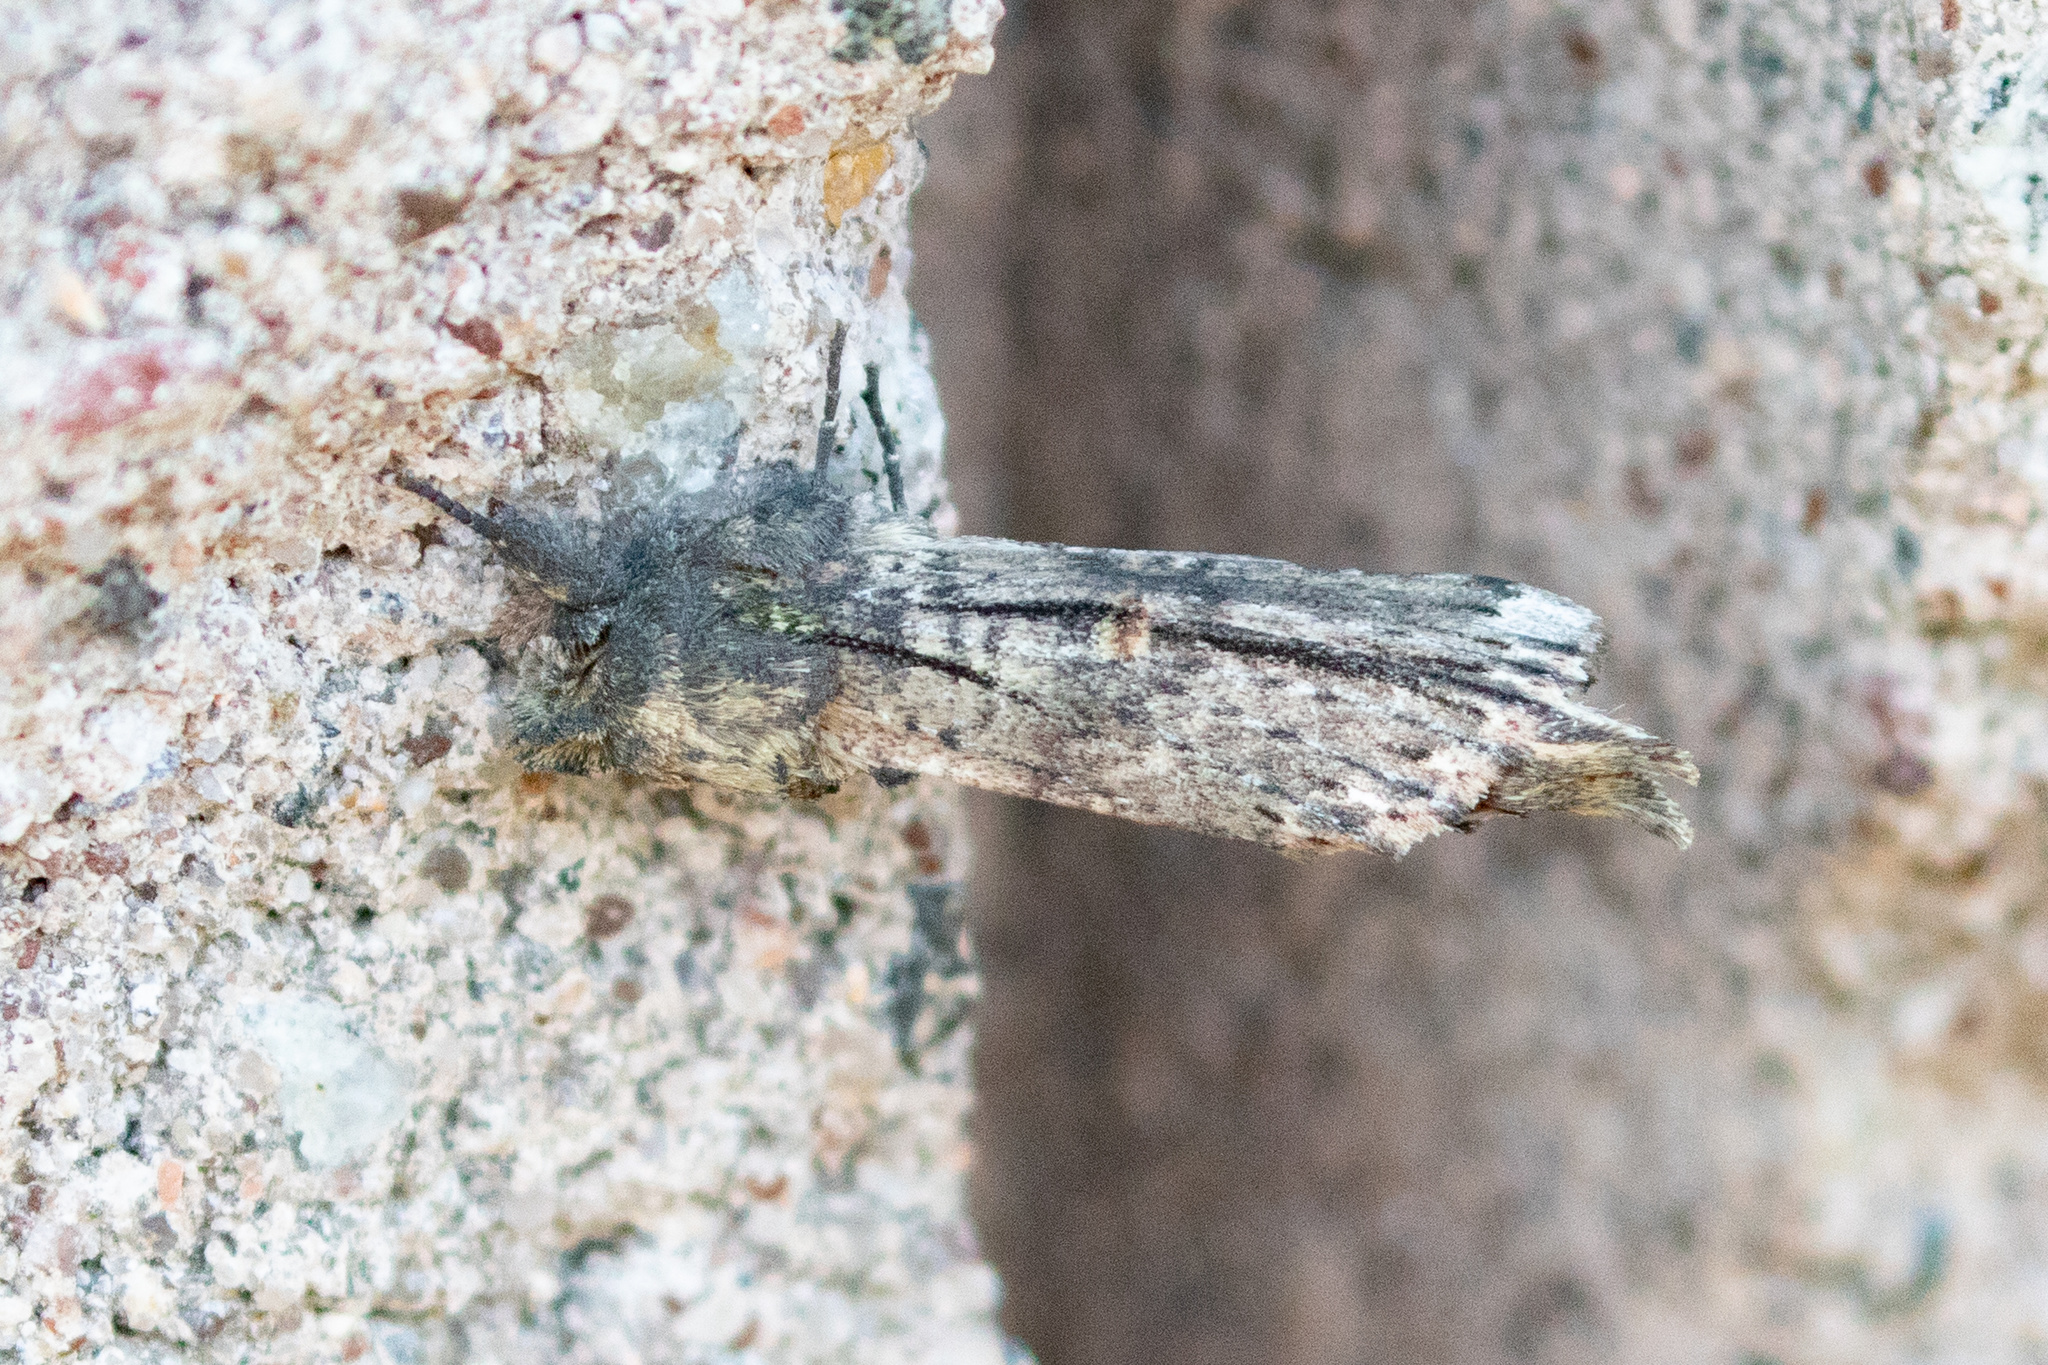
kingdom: Animalia
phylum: Arthropoda
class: Insecta
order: Lepidoptera
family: Notodontidae
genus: Schizura
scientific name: Schizura ipomaeae
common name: Morning-glory prominent
